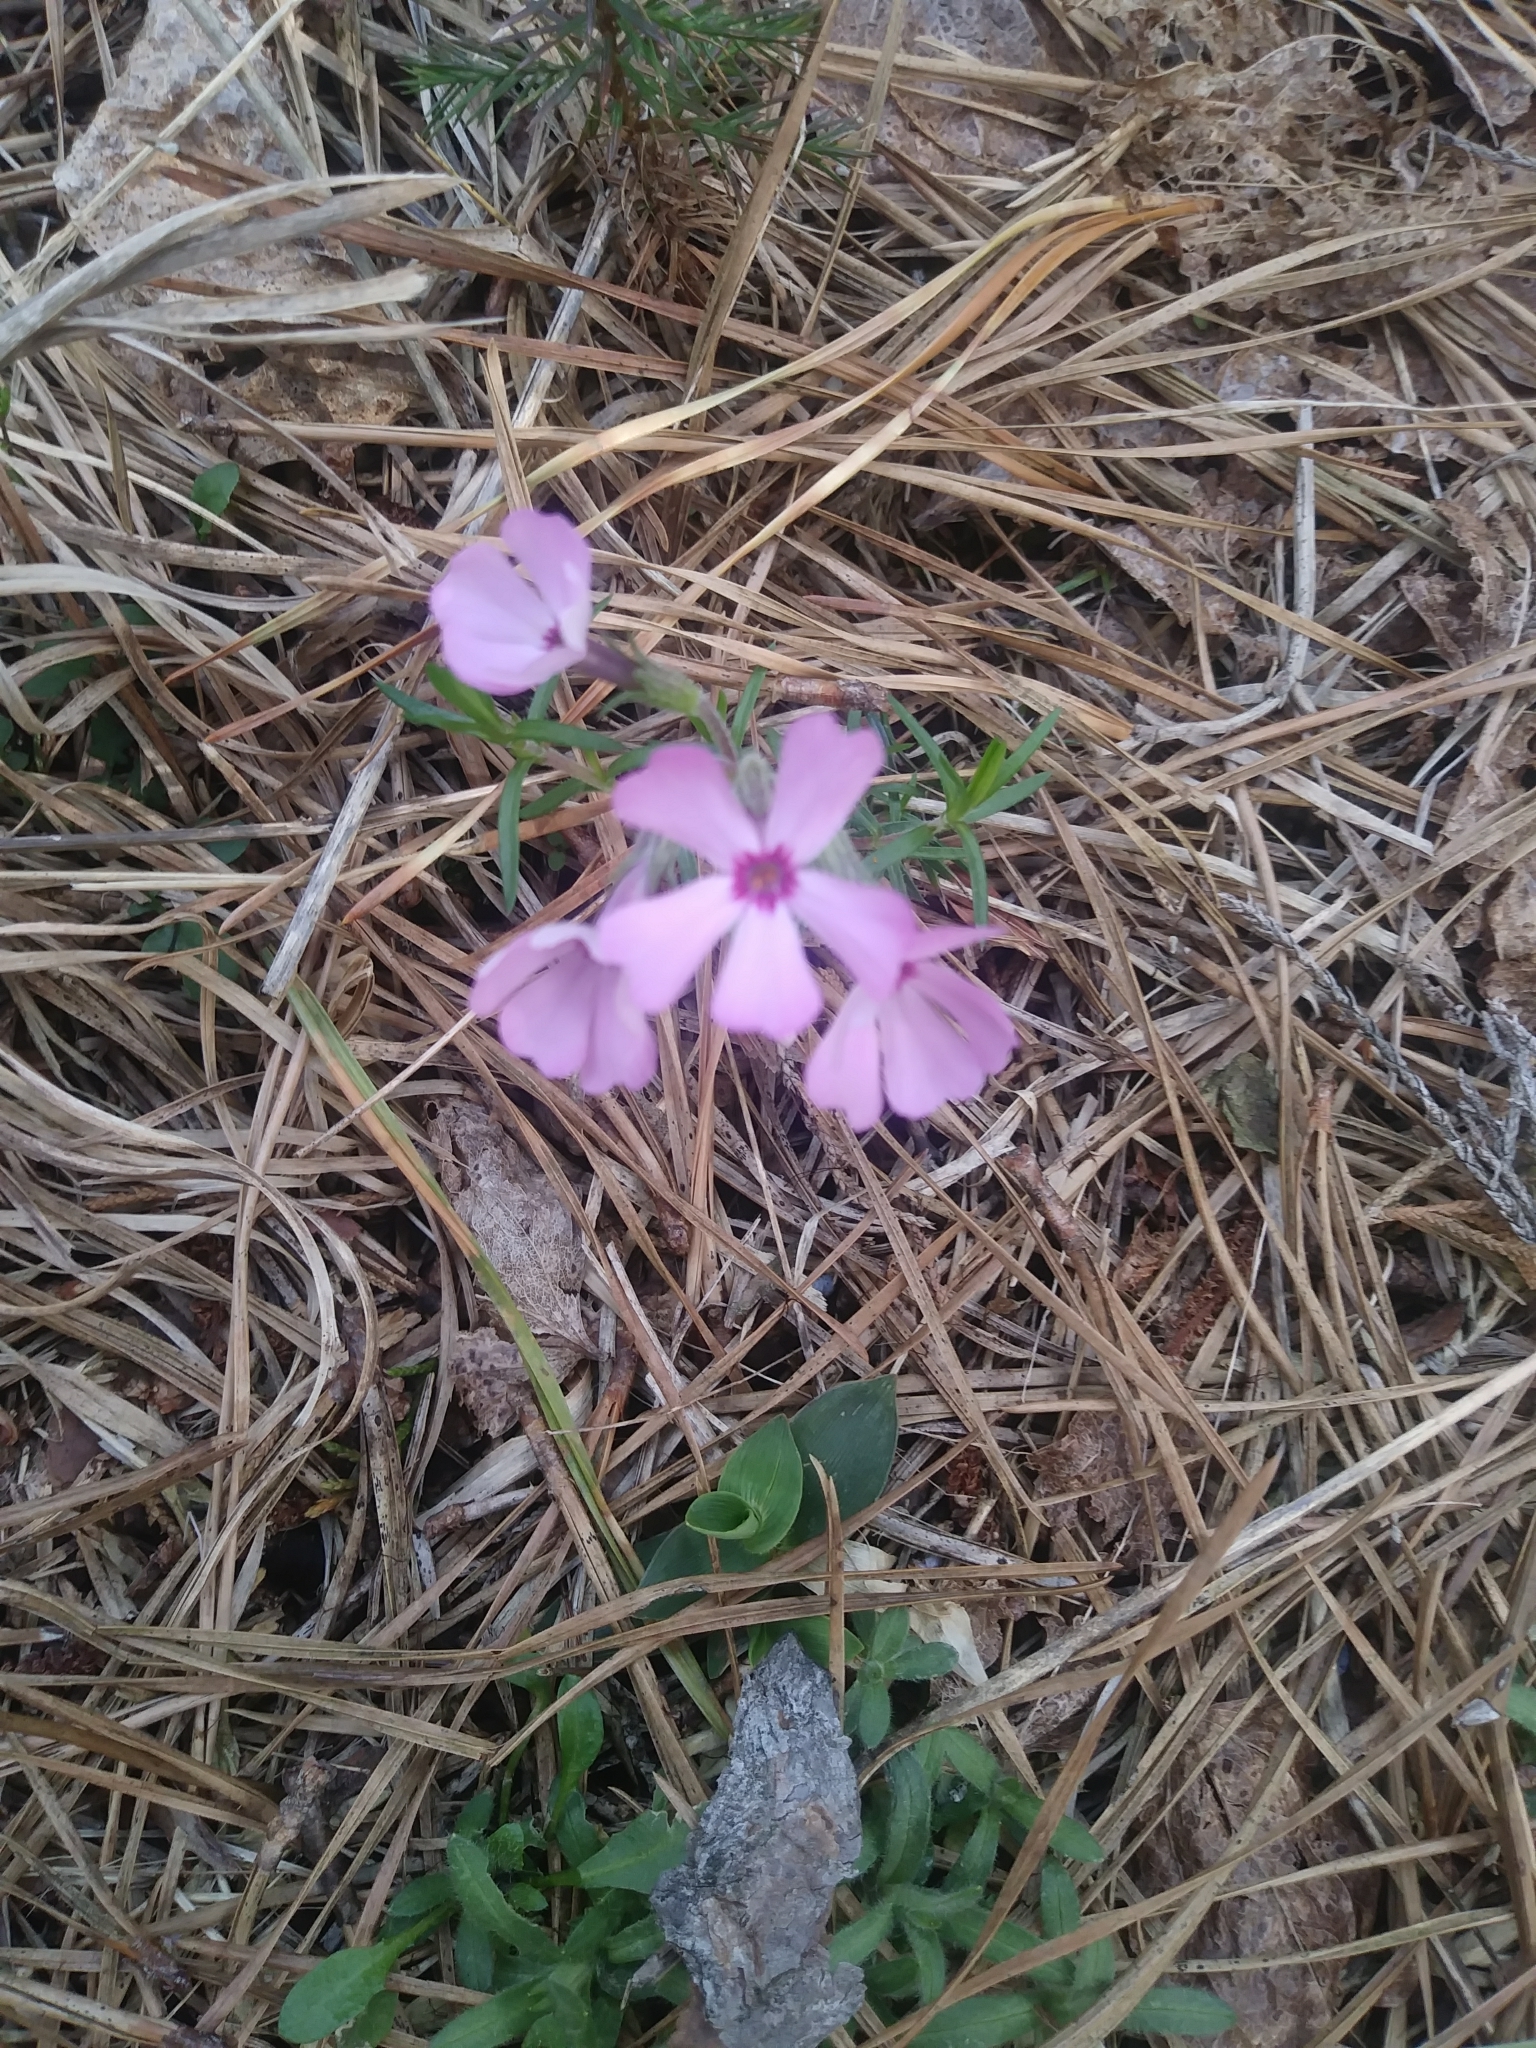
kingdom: Plantae
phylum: Tracheophyta
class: Magnoliopsida
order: Ericales
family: Polemoniaceae
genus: Phlox
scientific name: Phlox subulata
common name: Moss phlox
